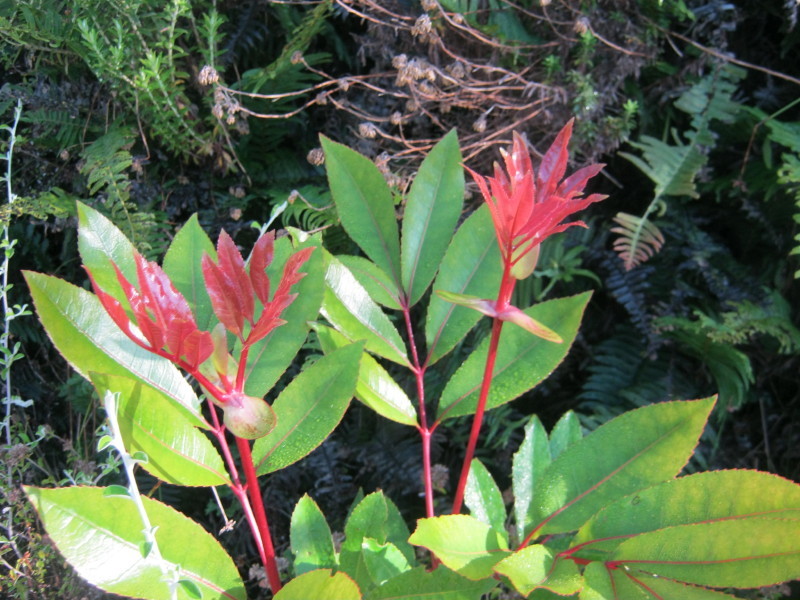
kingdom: Plantae
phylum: Tracheophyta
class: Magnoliopsida
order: Oxalidales
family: Cunoniaceae
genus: Cunonia
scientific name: Cunonia capensis
